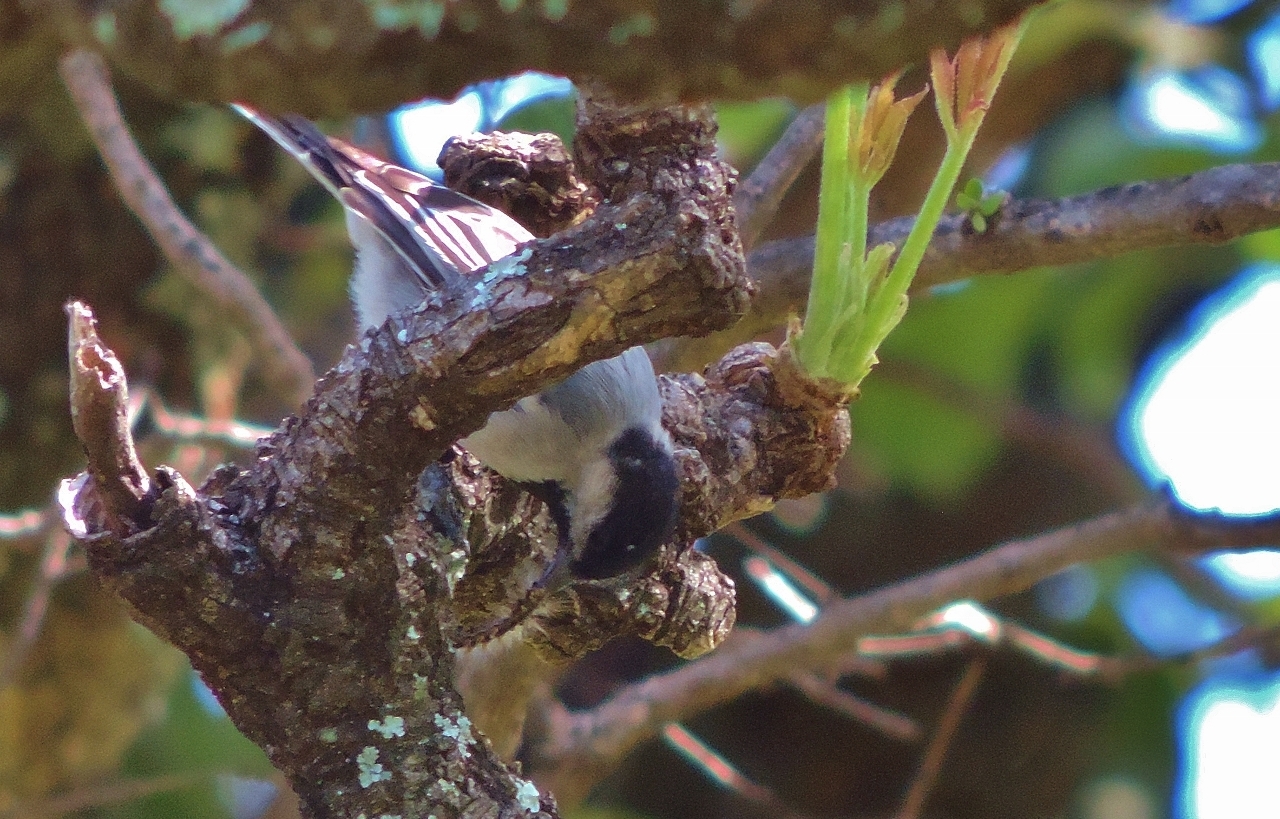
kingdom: Animalia
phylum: Chordata
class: Aves
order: Passeriformes
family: Paridae
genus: Parus
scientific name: Parus griseiventris
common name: Miombo tit
